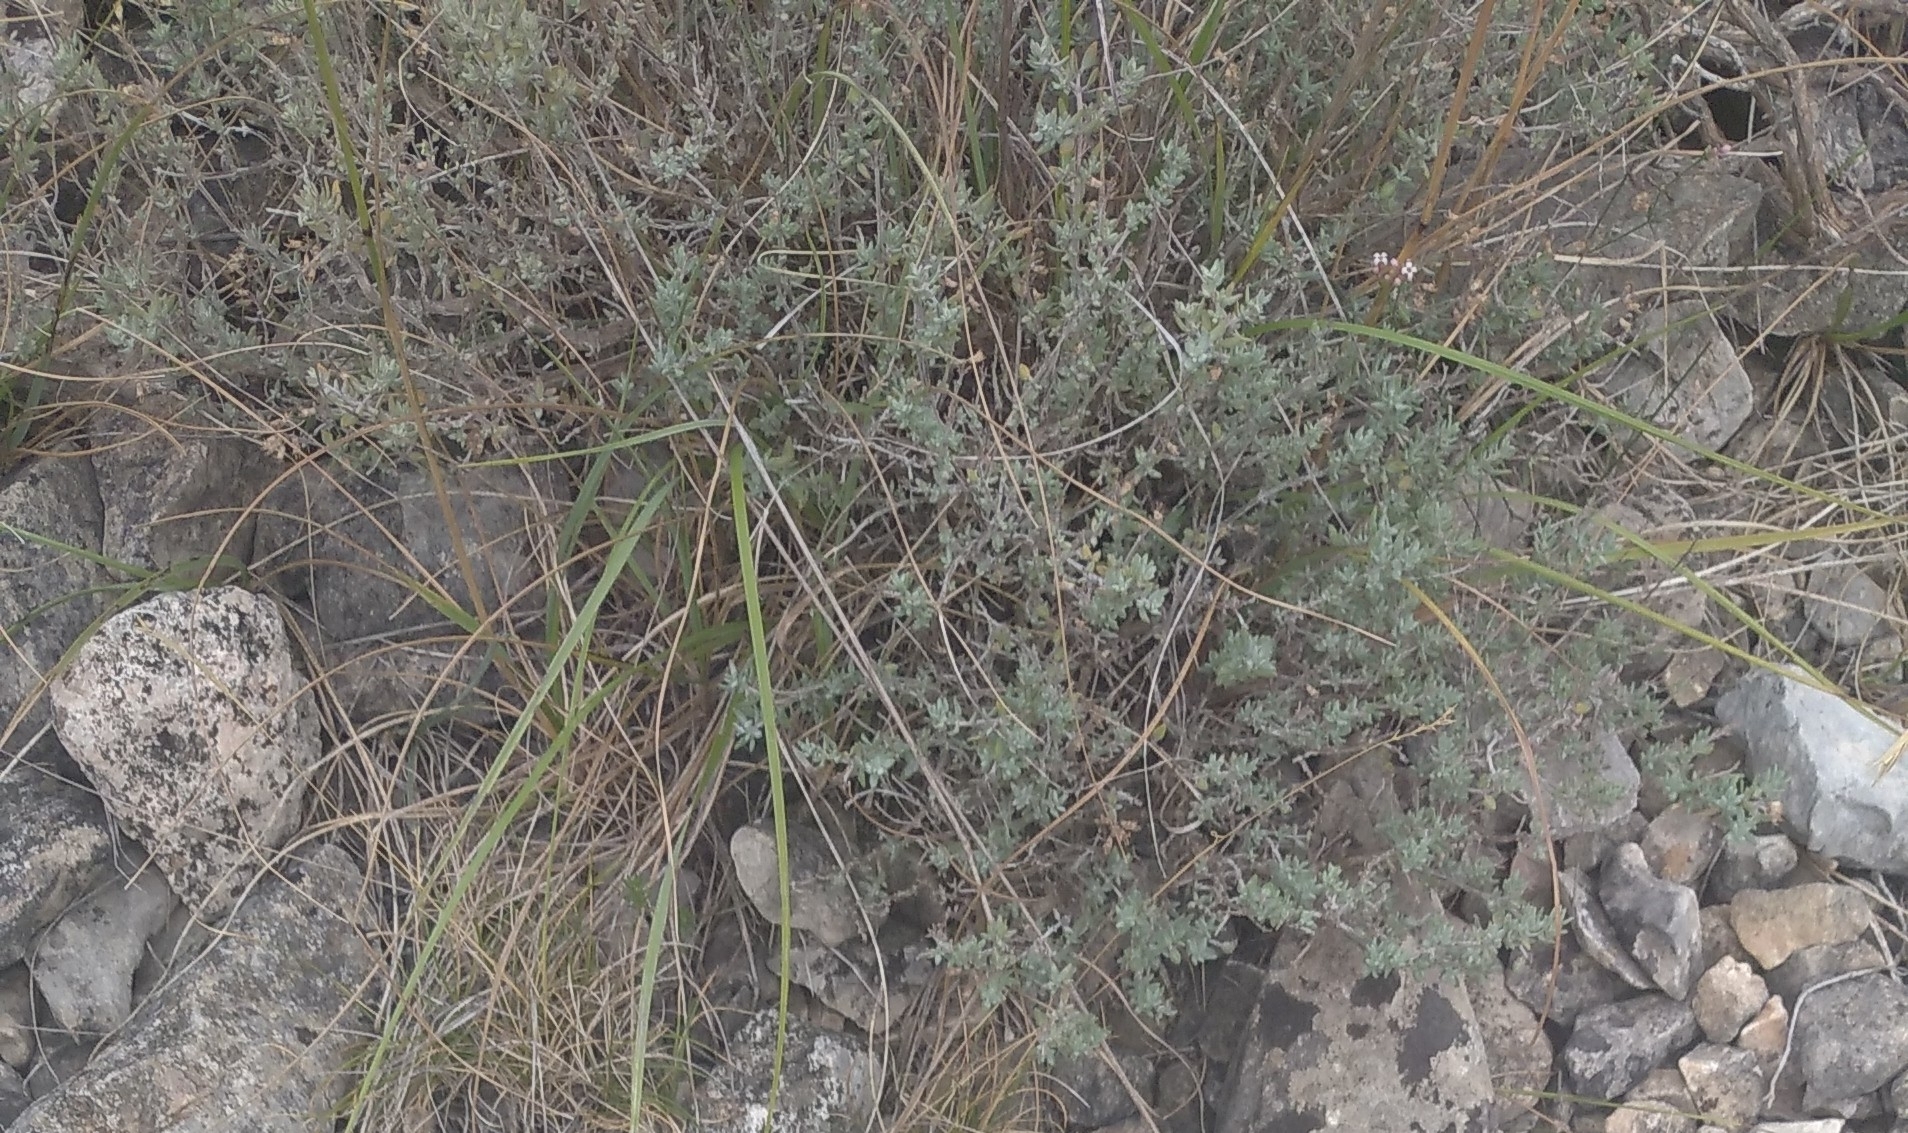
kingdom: Plantae
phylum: Tracheophyta
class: Magnoliopsida
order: Lamiales
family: Lamiaceae
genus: Thymus
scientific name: Thymus vulgaris
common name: Garden thyme
